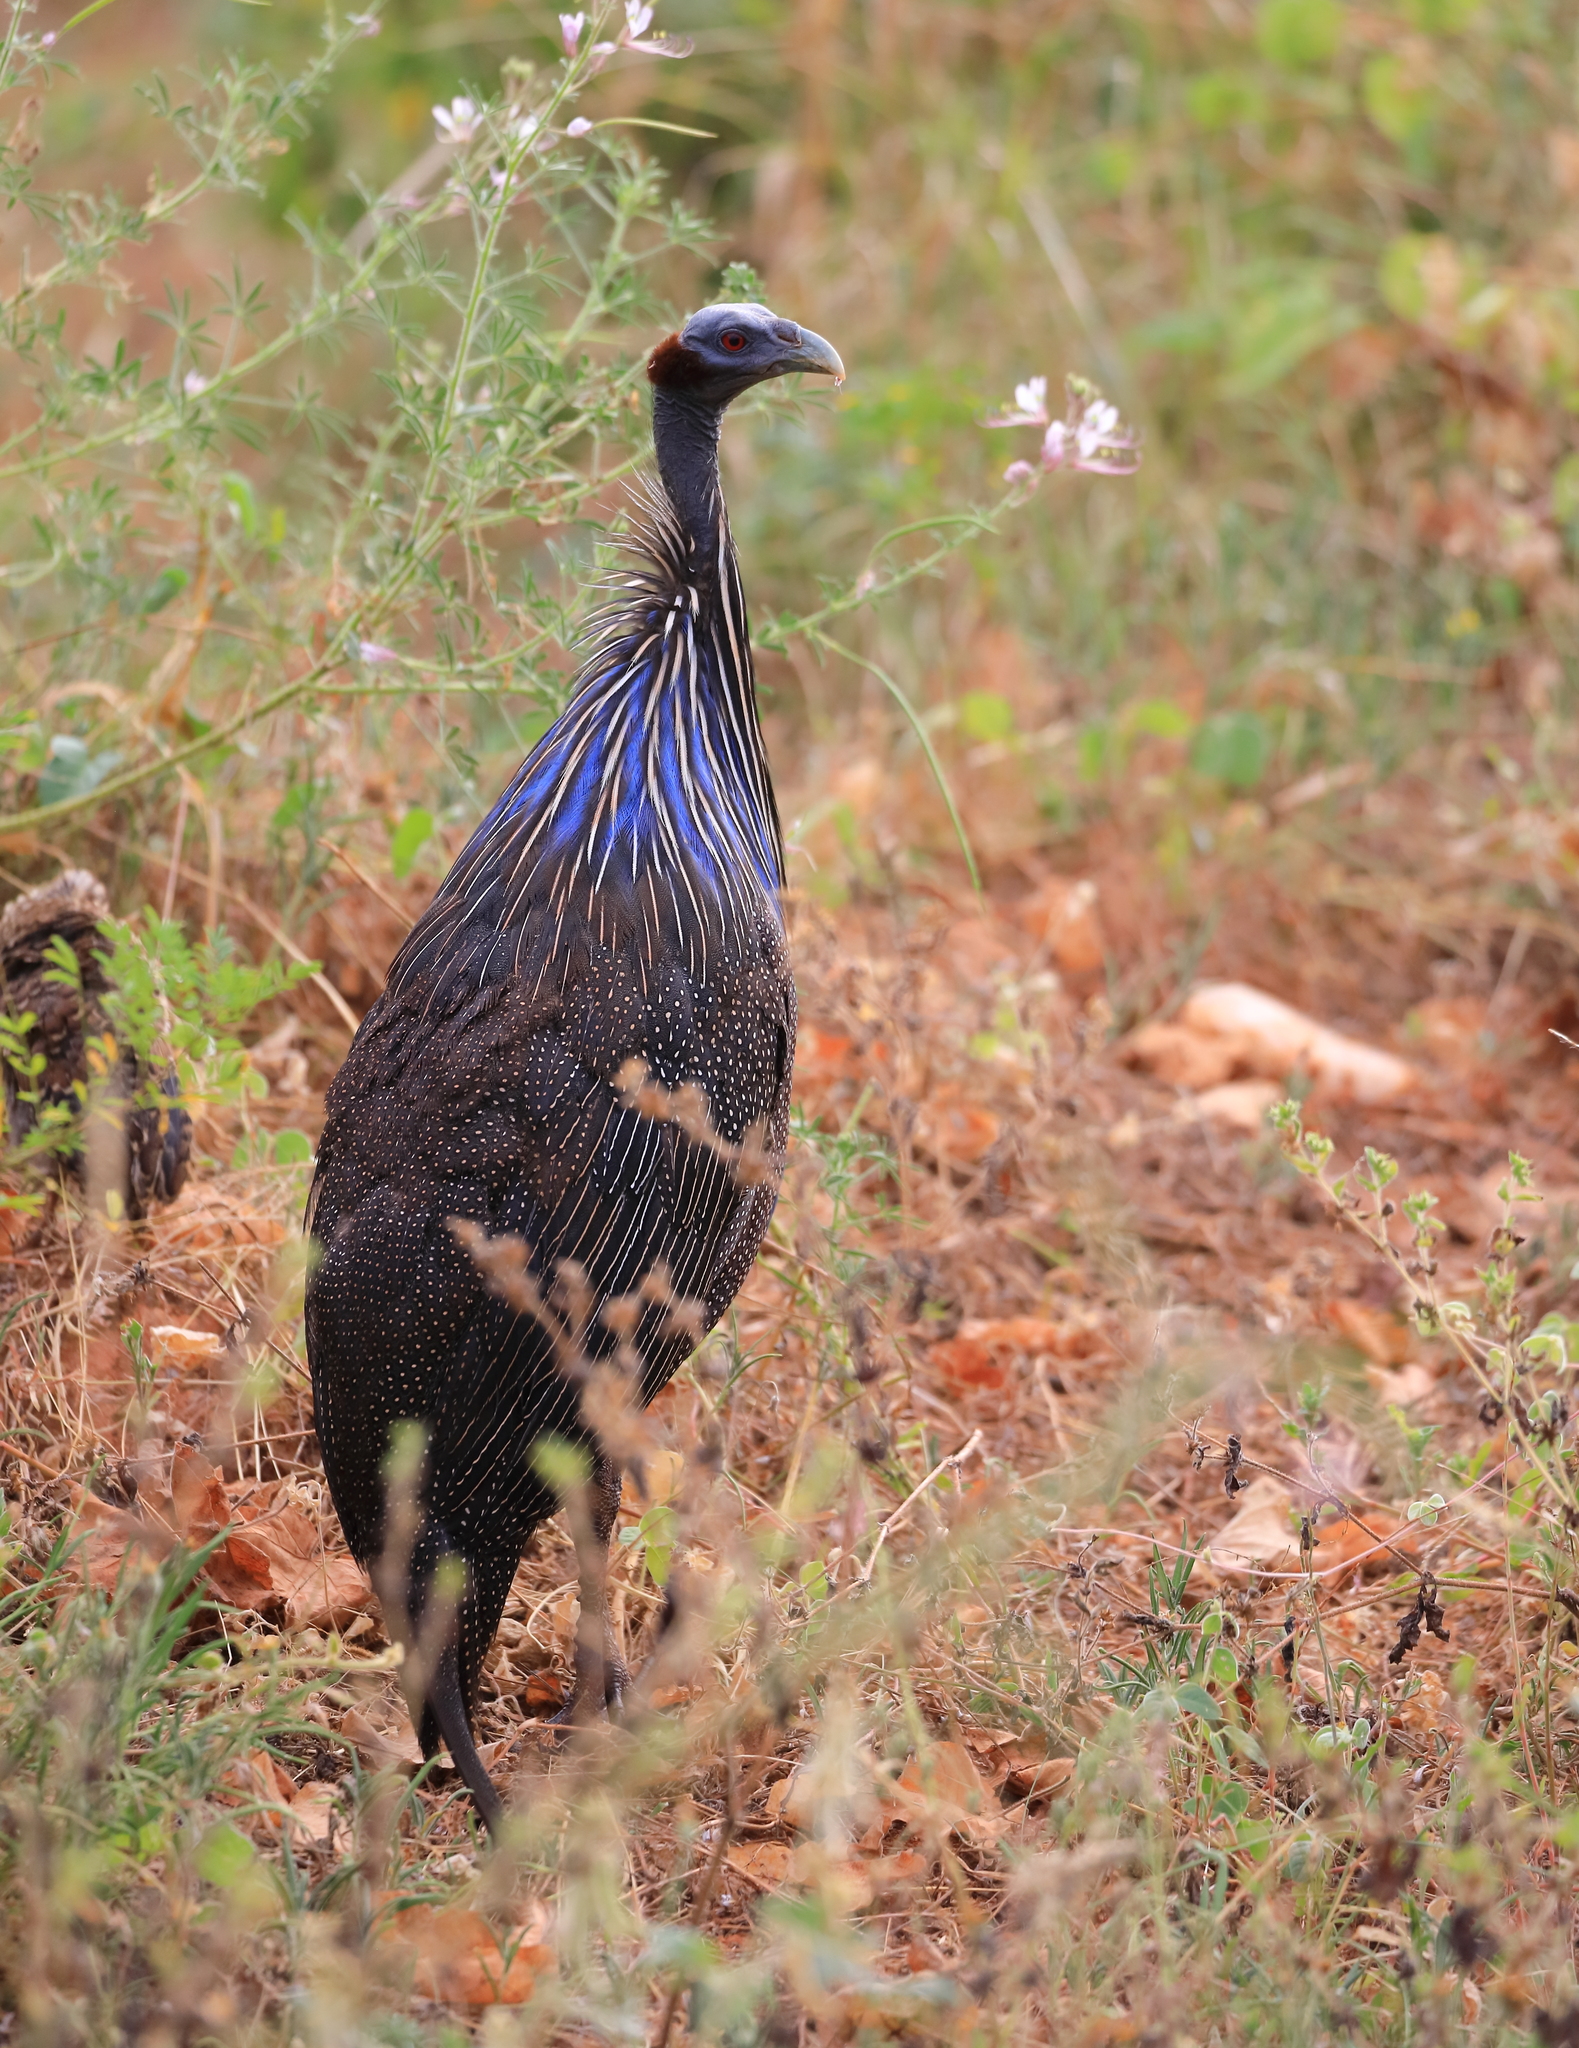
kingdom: Animalia
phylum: Chordata
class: Aves
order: Galliformes
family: Numididae
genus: Acryllium
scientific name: Acryllium vulturinum
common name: Vulturine guineafowl
